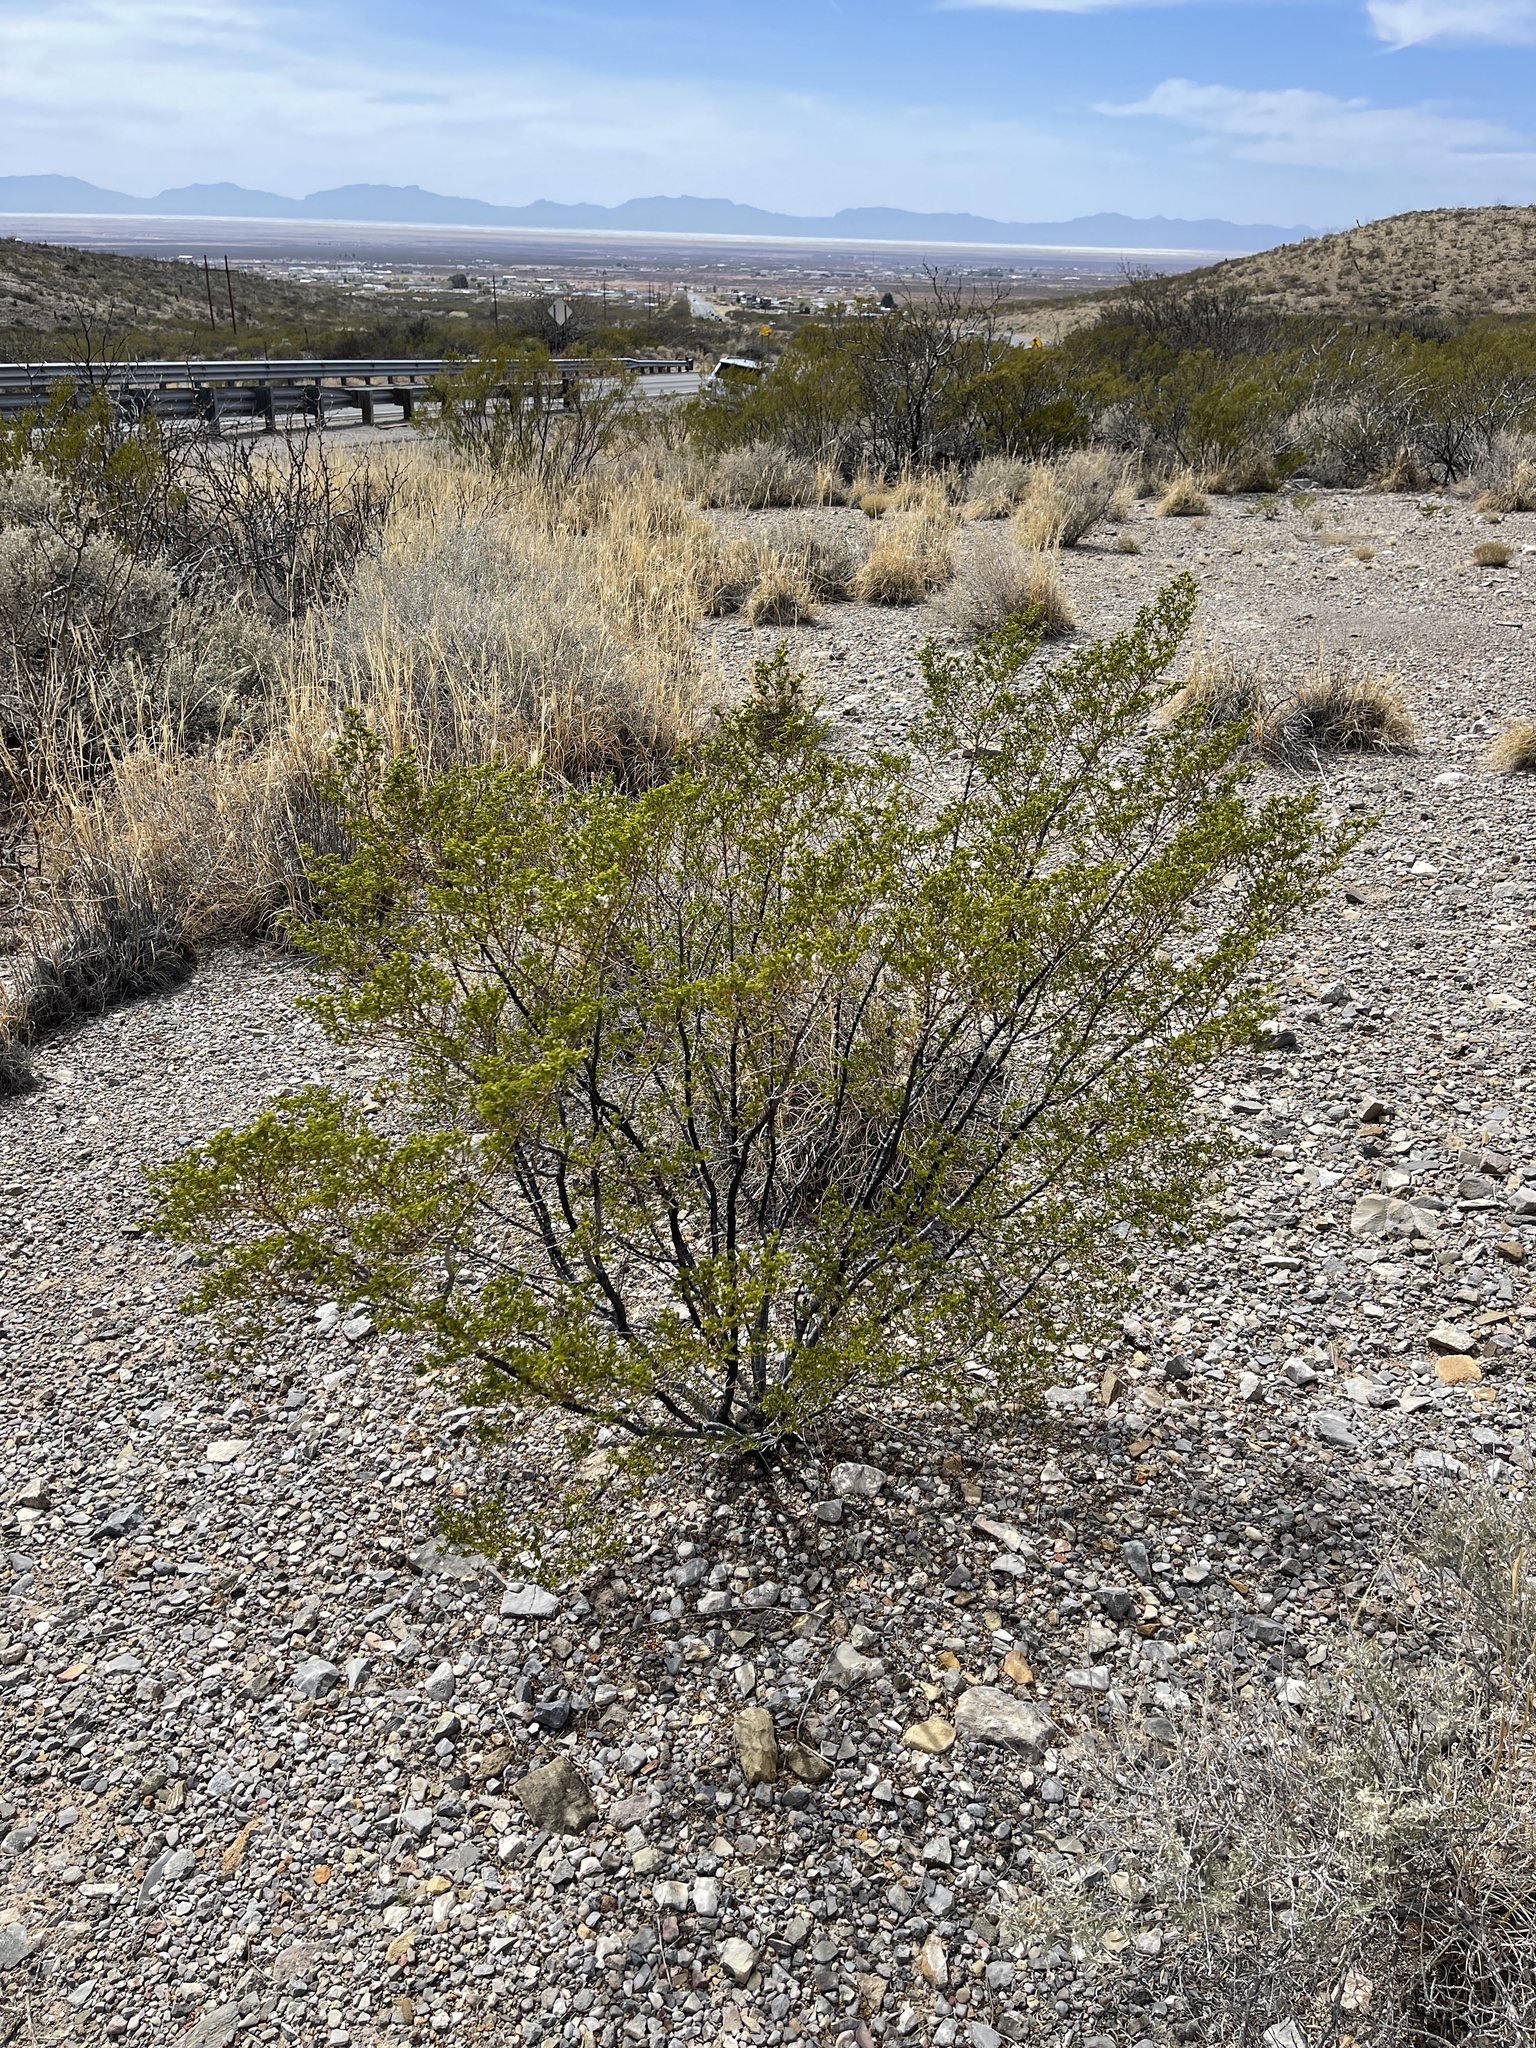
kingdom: Plantae
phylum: Tracheophyta
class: Magnoliopsida
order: Zygophyllales
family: Zygophyllaceae
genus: Larrea
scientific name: Larrea tridentata
